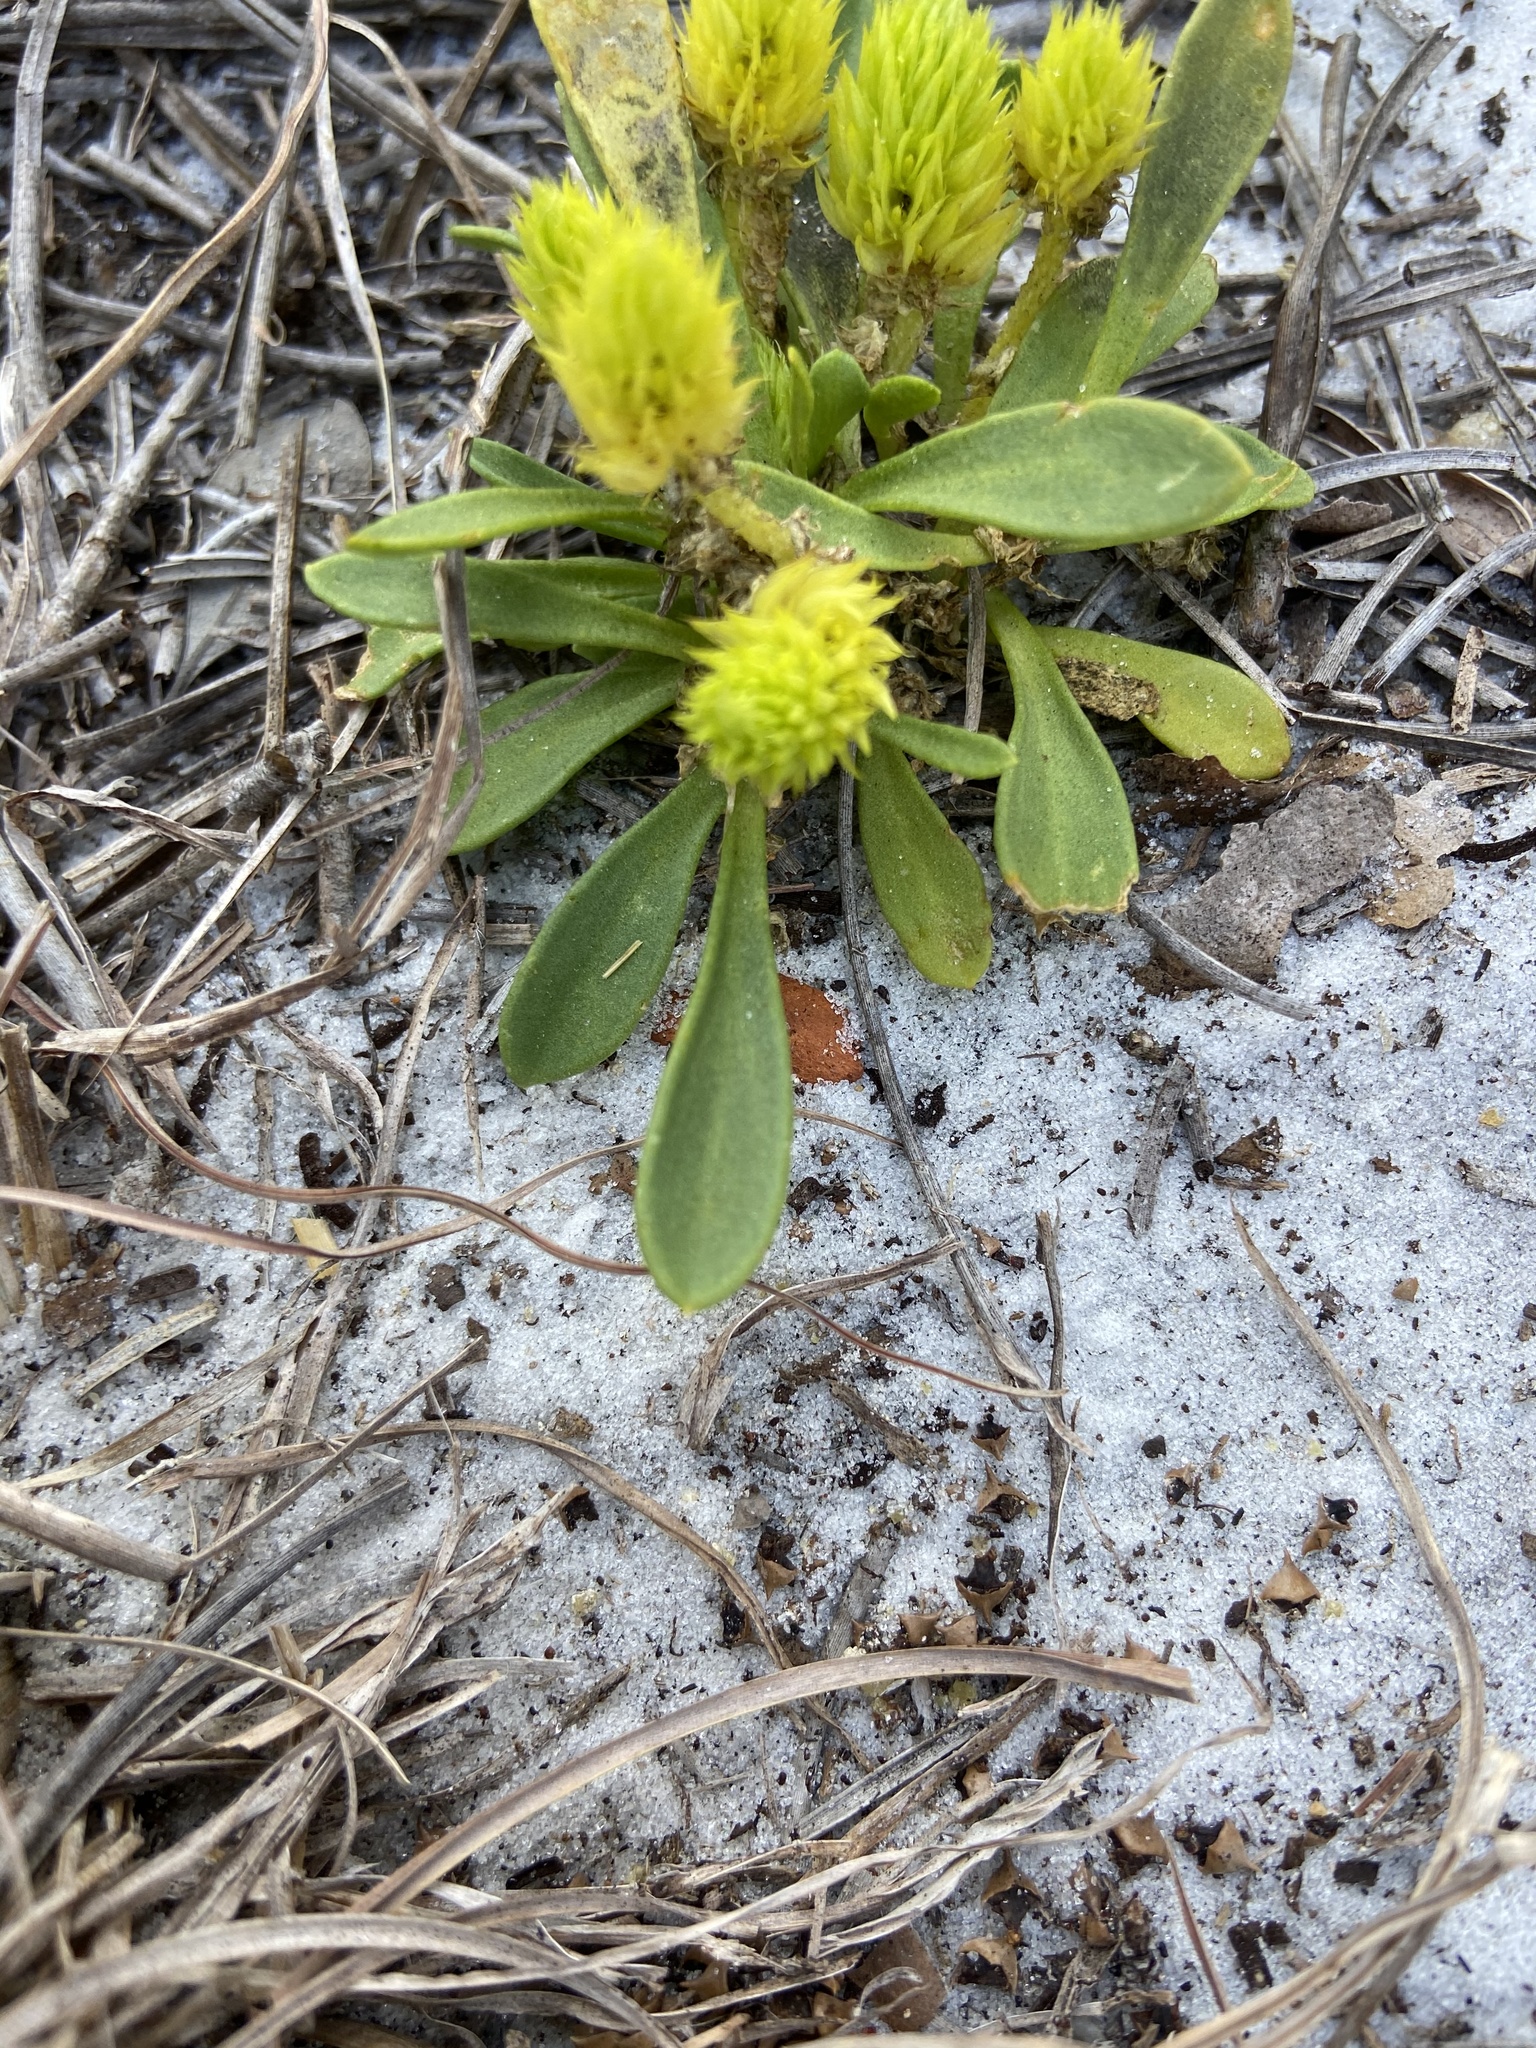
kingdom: Plantae
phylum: Tracheophyta
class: Magnoliopsida
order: Fabales
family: Polygalaceae
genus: Polygala
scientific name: Polygala nana
